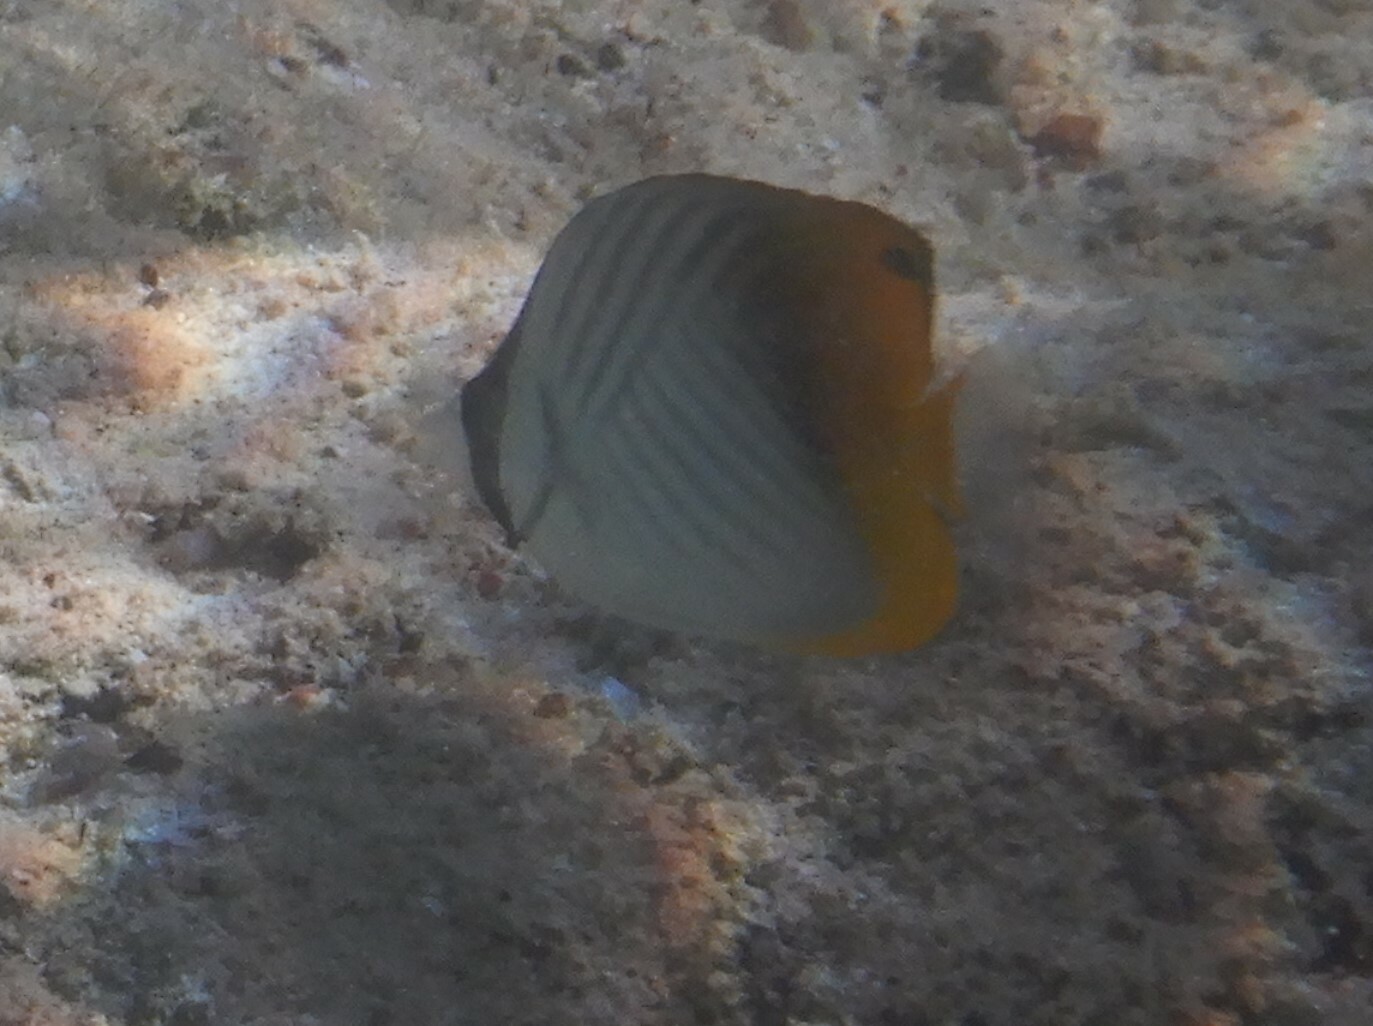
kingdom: Animalia
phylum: Chordata
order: Perciformes
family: Chaetodontidae
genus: Chaetodon
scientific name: Chaetodon auriga
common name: Threadfin butterflyfish
